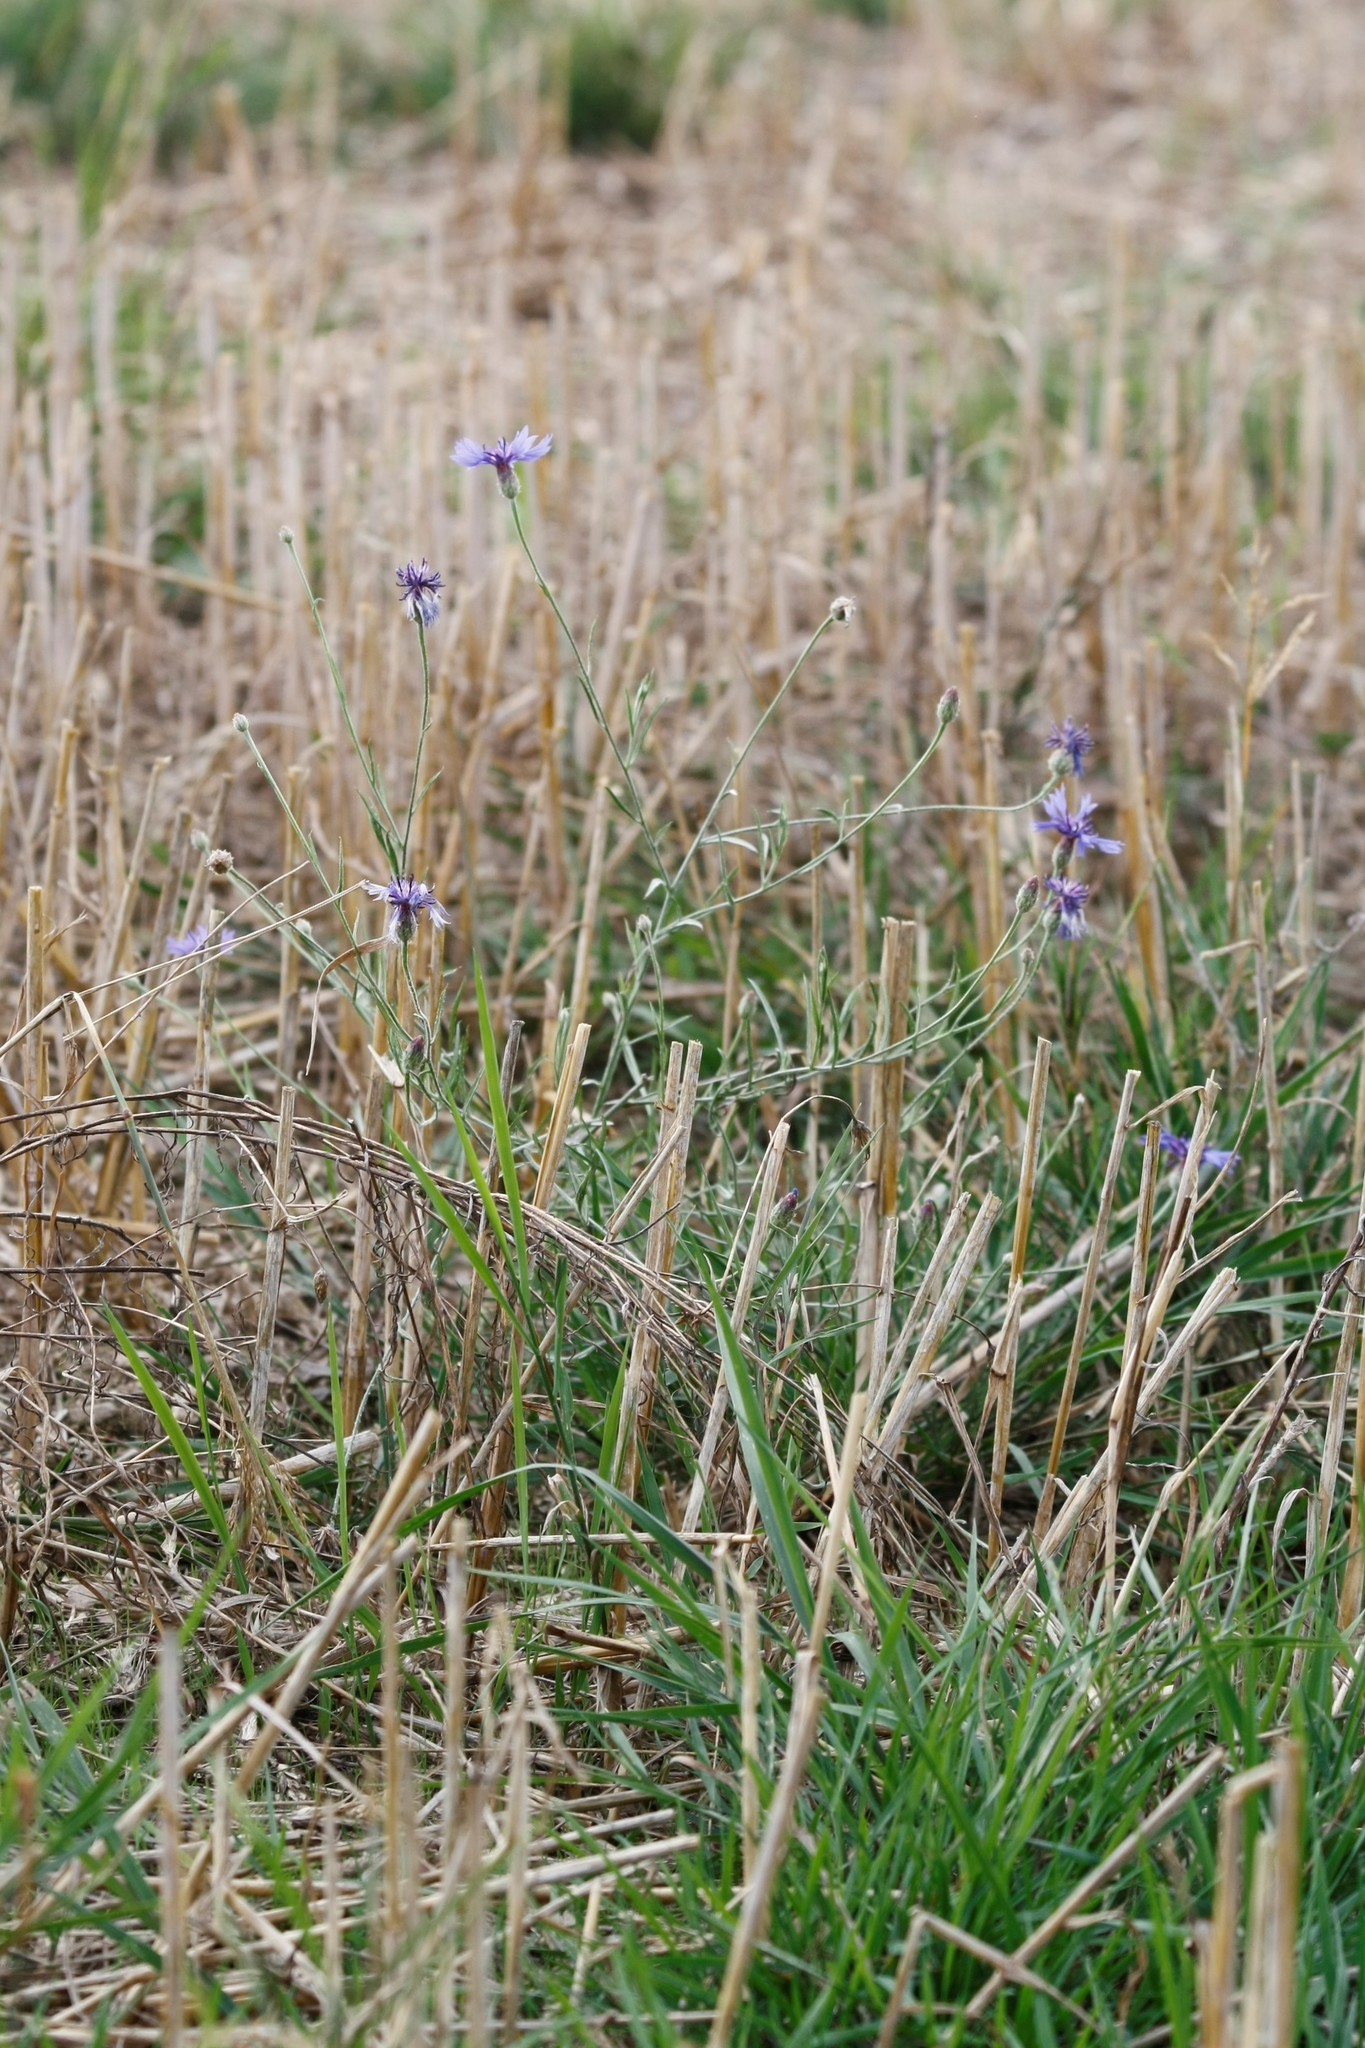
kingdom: Plantae
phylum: Tracheophyta
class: Magnoliopsida
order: Asterales
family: Asteraceae
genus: Centaurea
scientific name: Centaurea cyanus
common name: Cornflower
